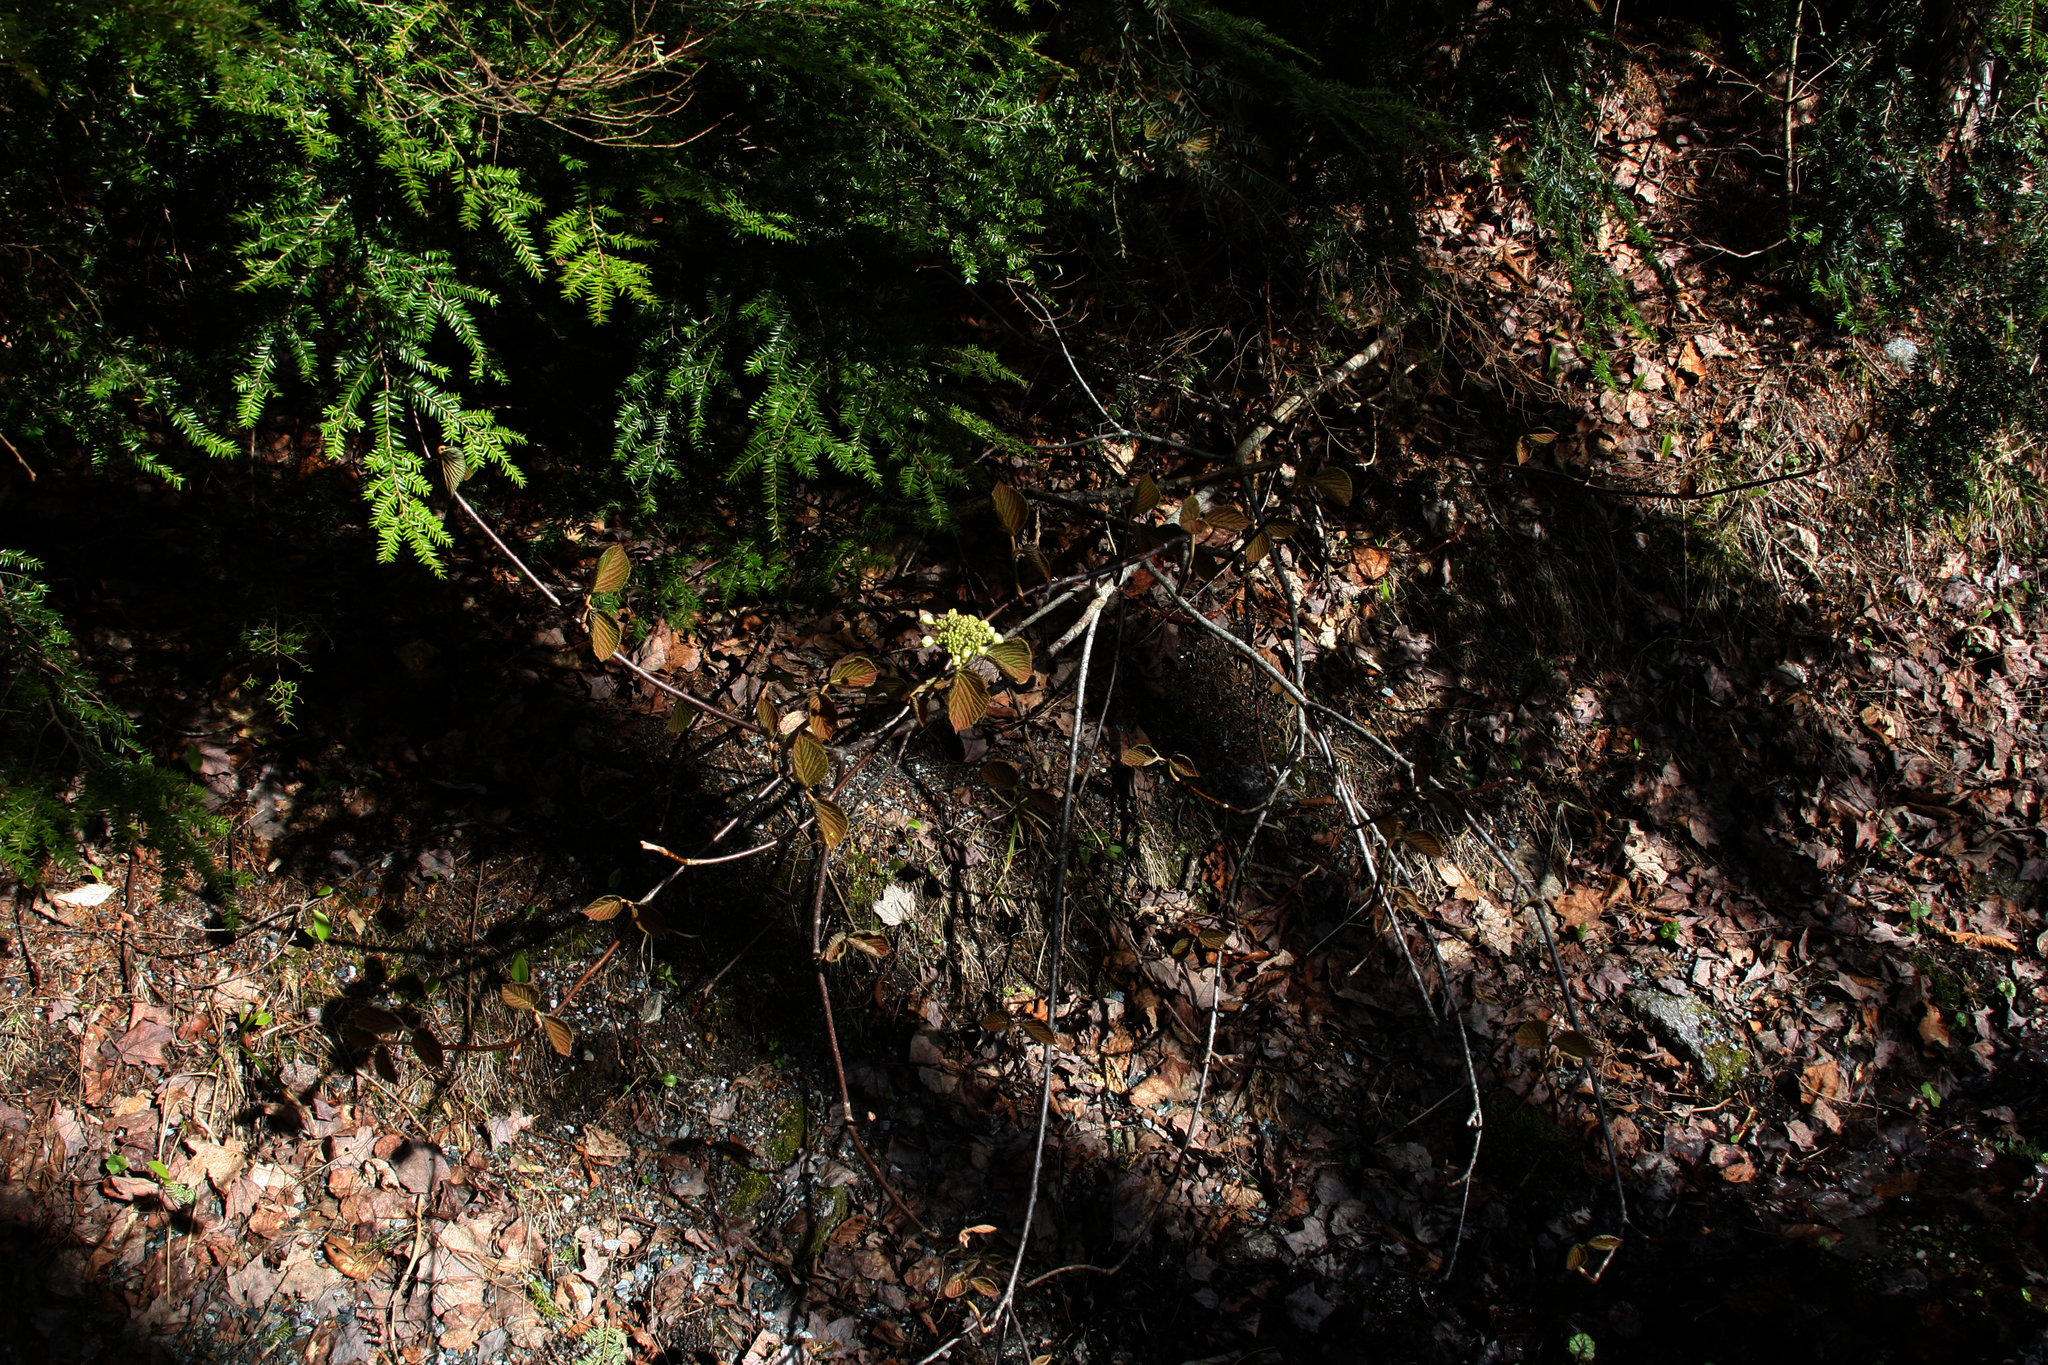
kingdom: Plantae
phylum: Tracheophyta
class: Magnoliopsida
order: Dipsacales
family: Viburnaceae
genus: Viburnum
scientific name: Viburnum lantanoides
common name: Hobblebush
